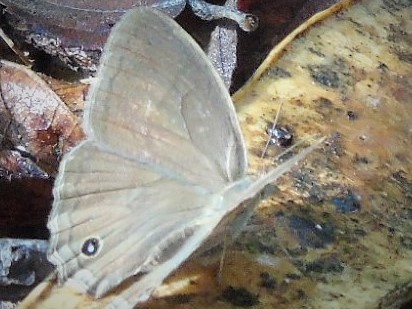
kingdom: Animalia
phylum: Arthropoda
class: Insecta
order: Lepidoptera
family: Nymphalidae
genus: Euptychia
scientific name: Euptychia
